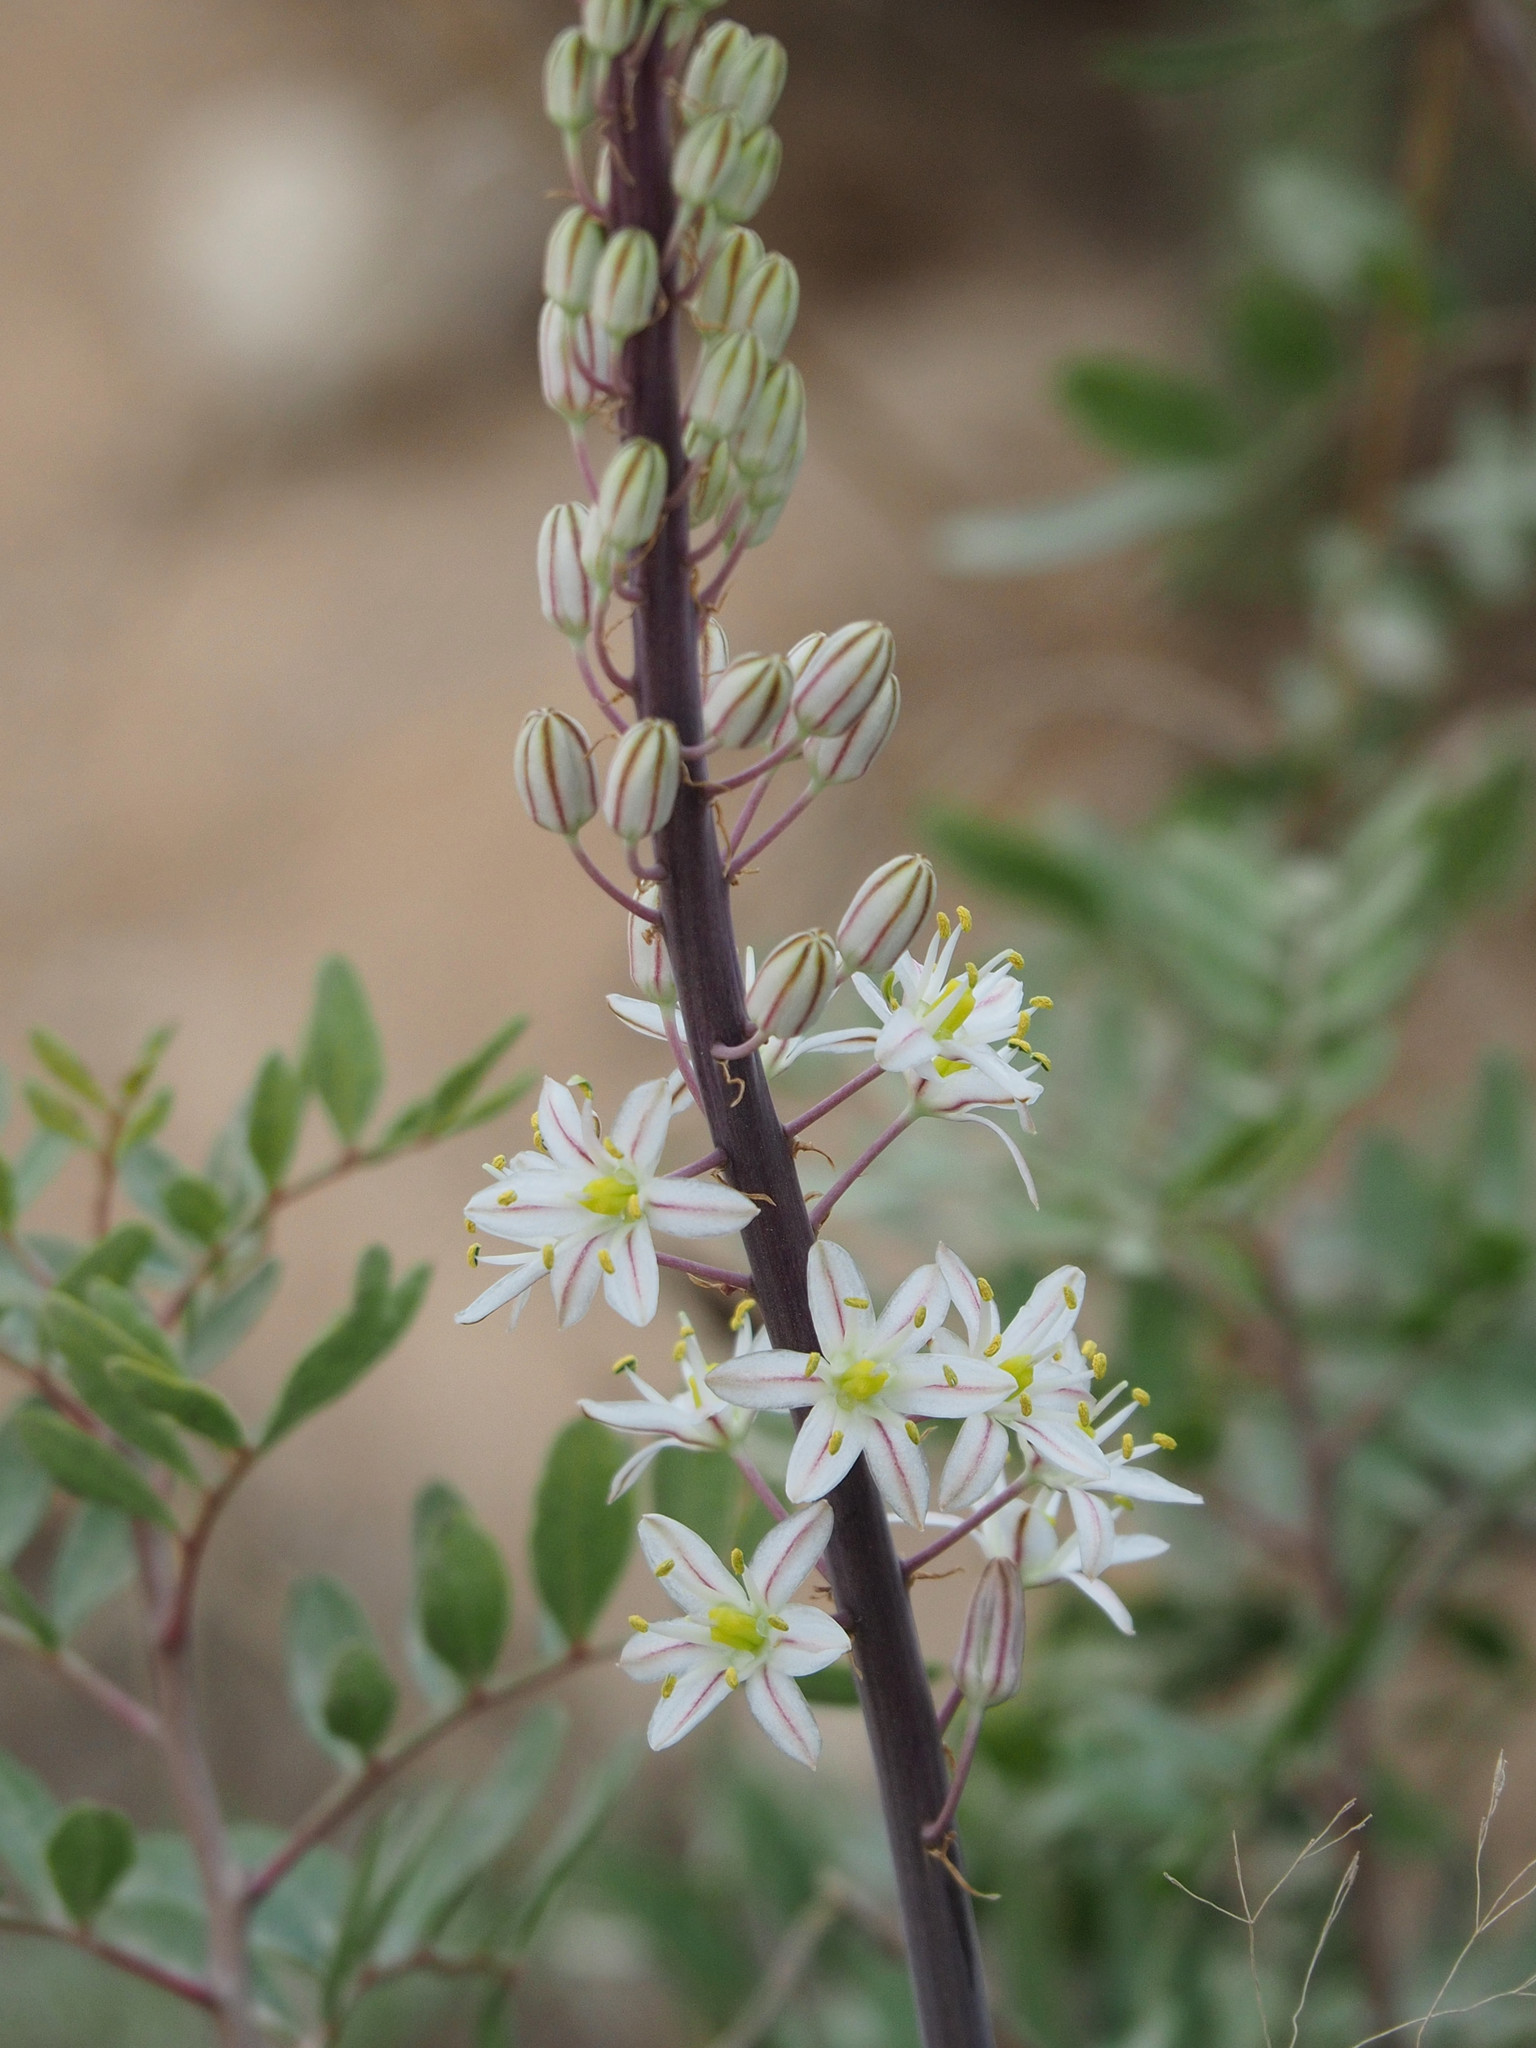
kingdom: Plantae
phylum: Tracheophyta
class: Liliopsida
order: Asparagales
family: Asparagaceae
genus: Drimia
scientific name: Drimia maritima
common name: Maritime squill
